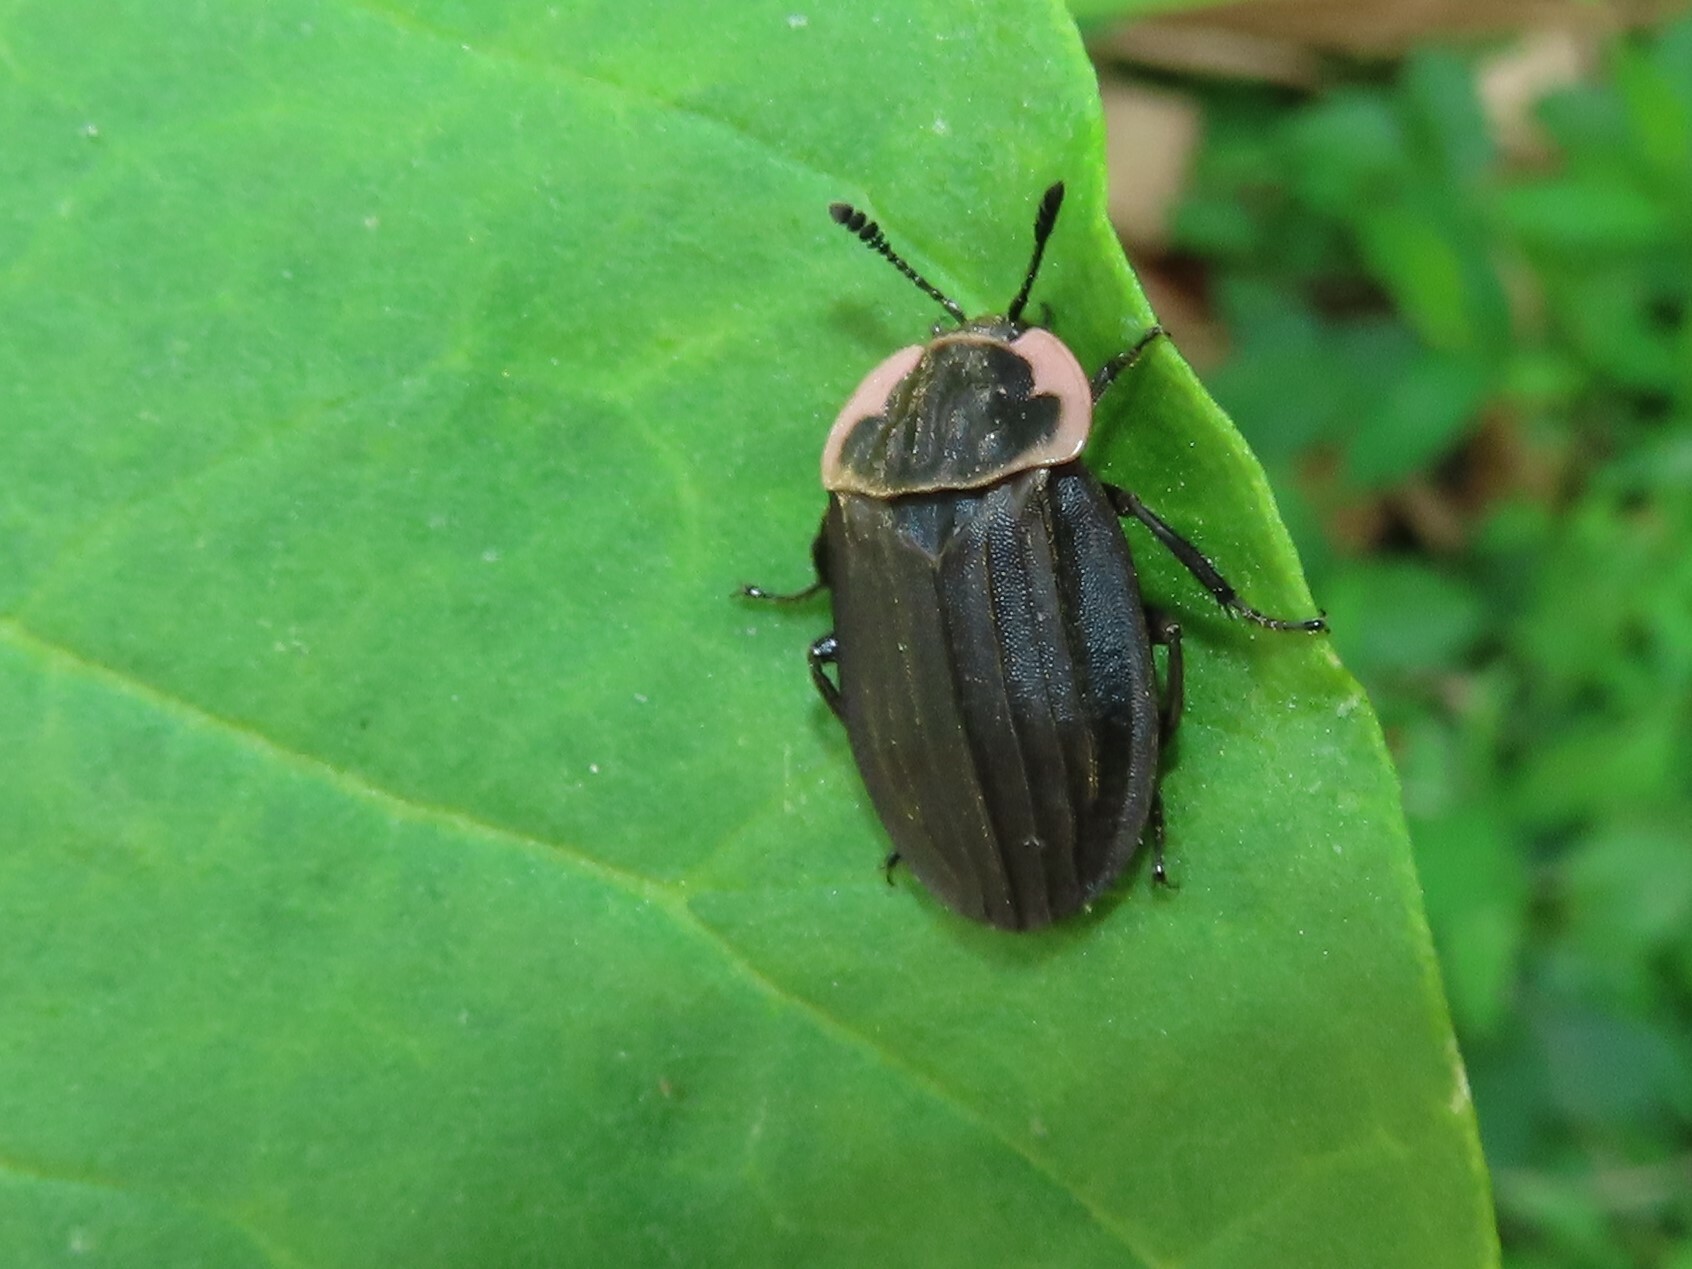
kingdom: Animalia
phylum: Arthropoda
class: Insecta
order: Coleoptera
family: Staphylinidae
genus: Oiceoptoma
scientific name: Oiceoptoma noveboracense
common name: Margined carrion beetle
